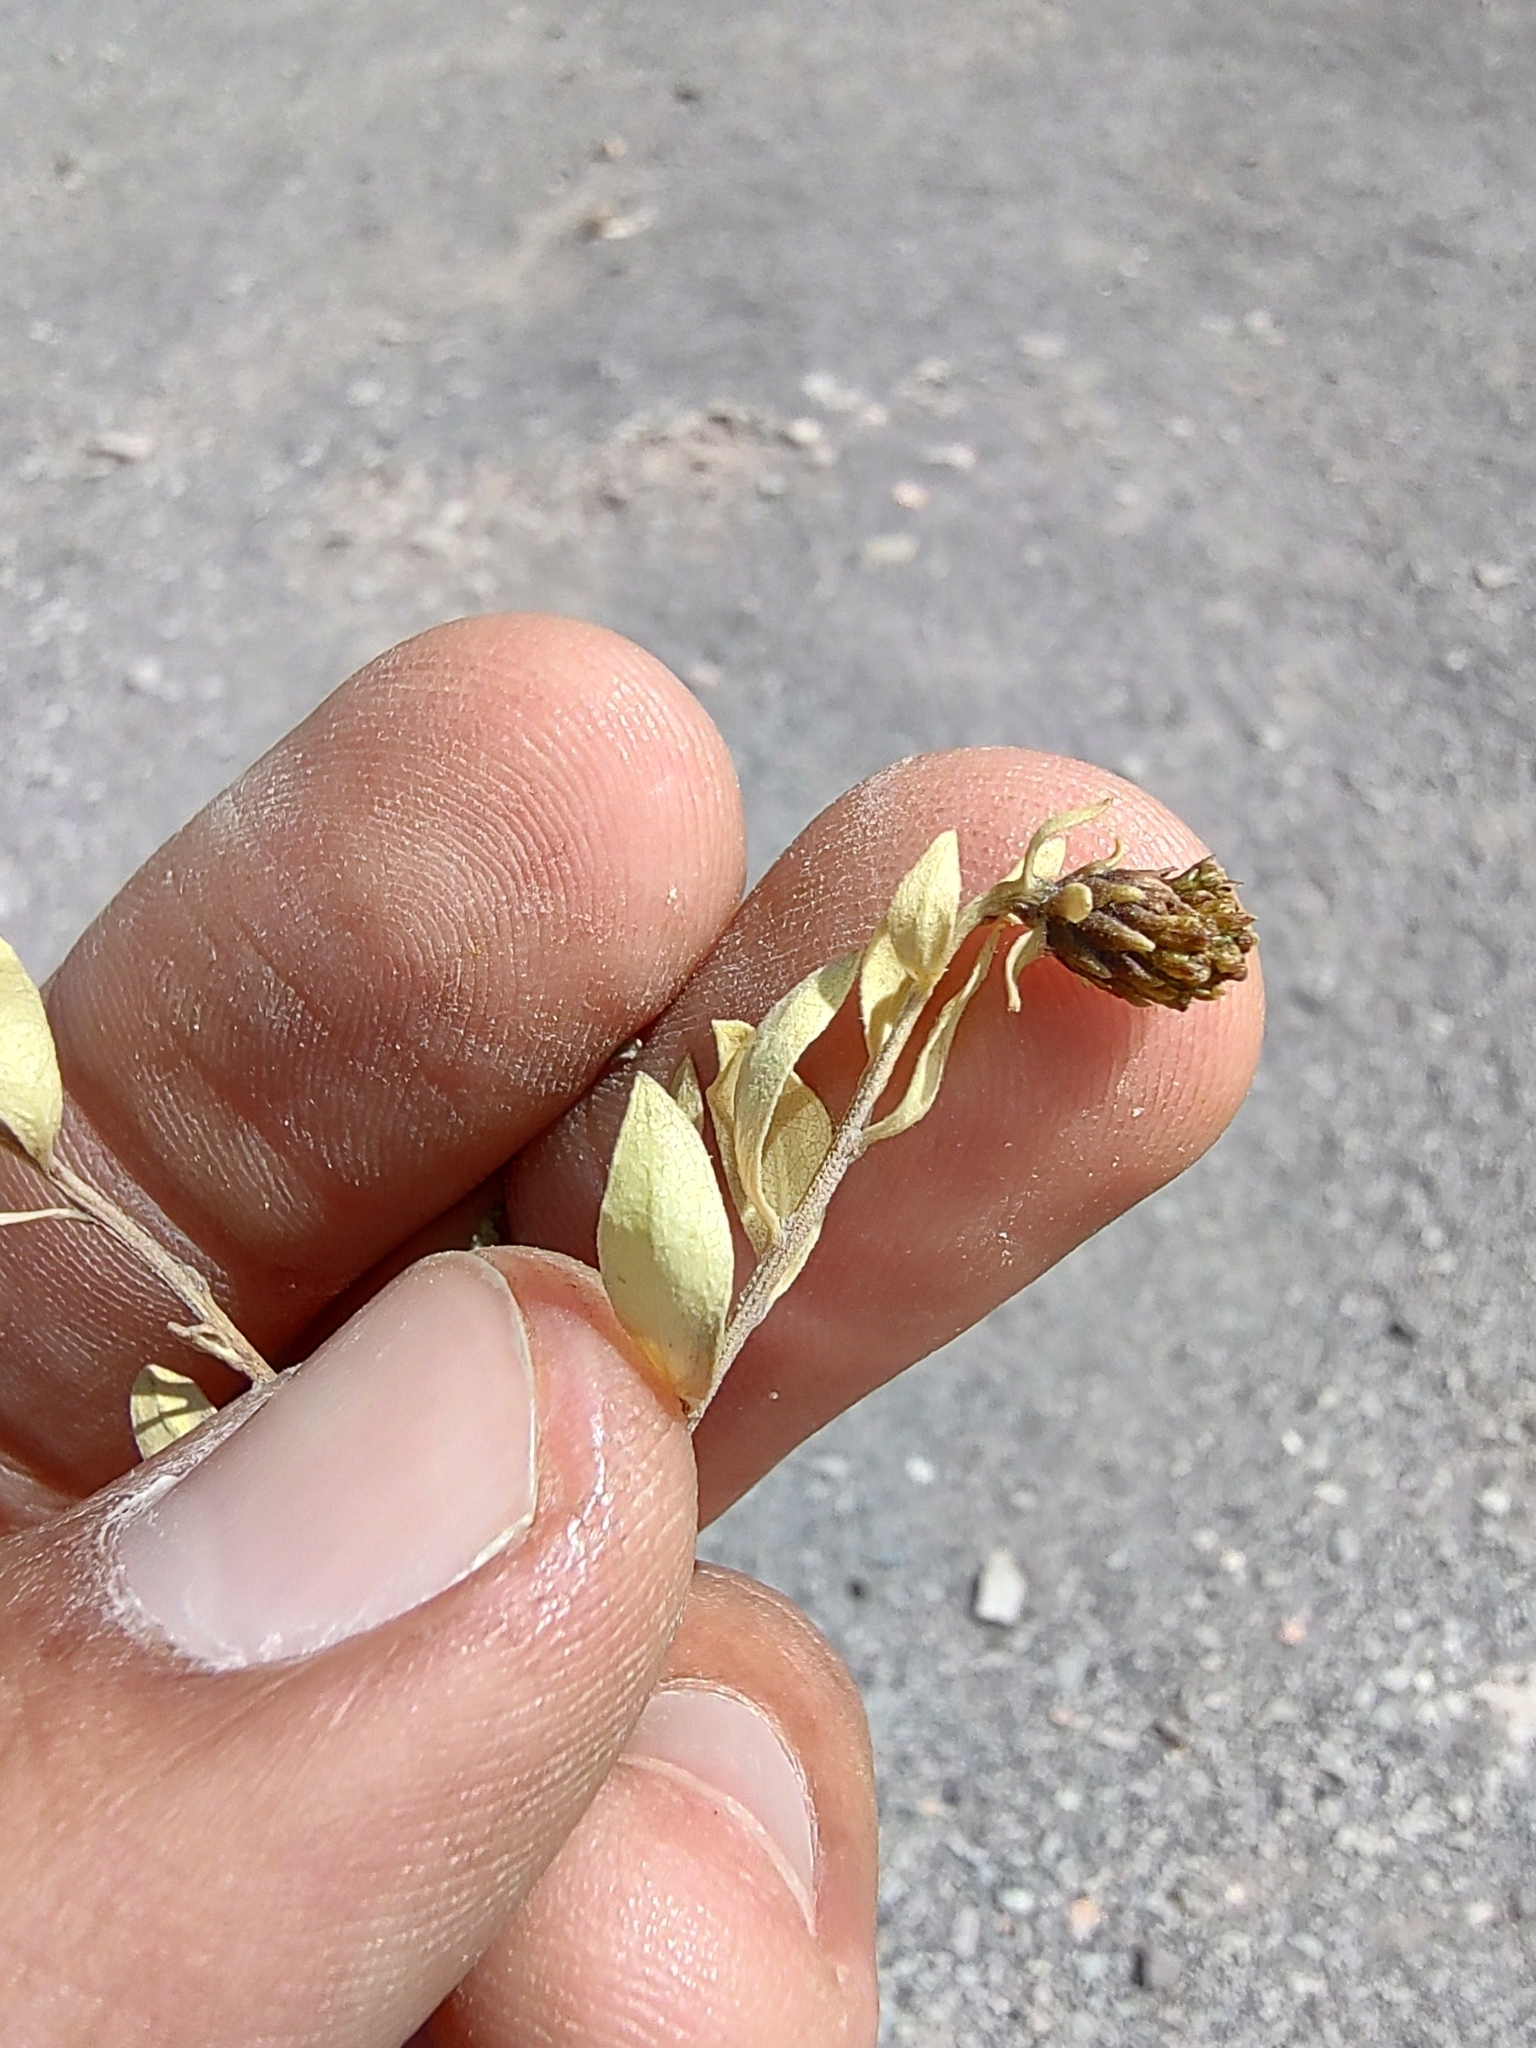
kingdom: Plantae
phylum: Tracheophyta
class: Magnoliopsida
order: Asterales
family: Asteraceae
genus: Flourensia
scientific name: Flourensia cernua
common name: Varnishbush
